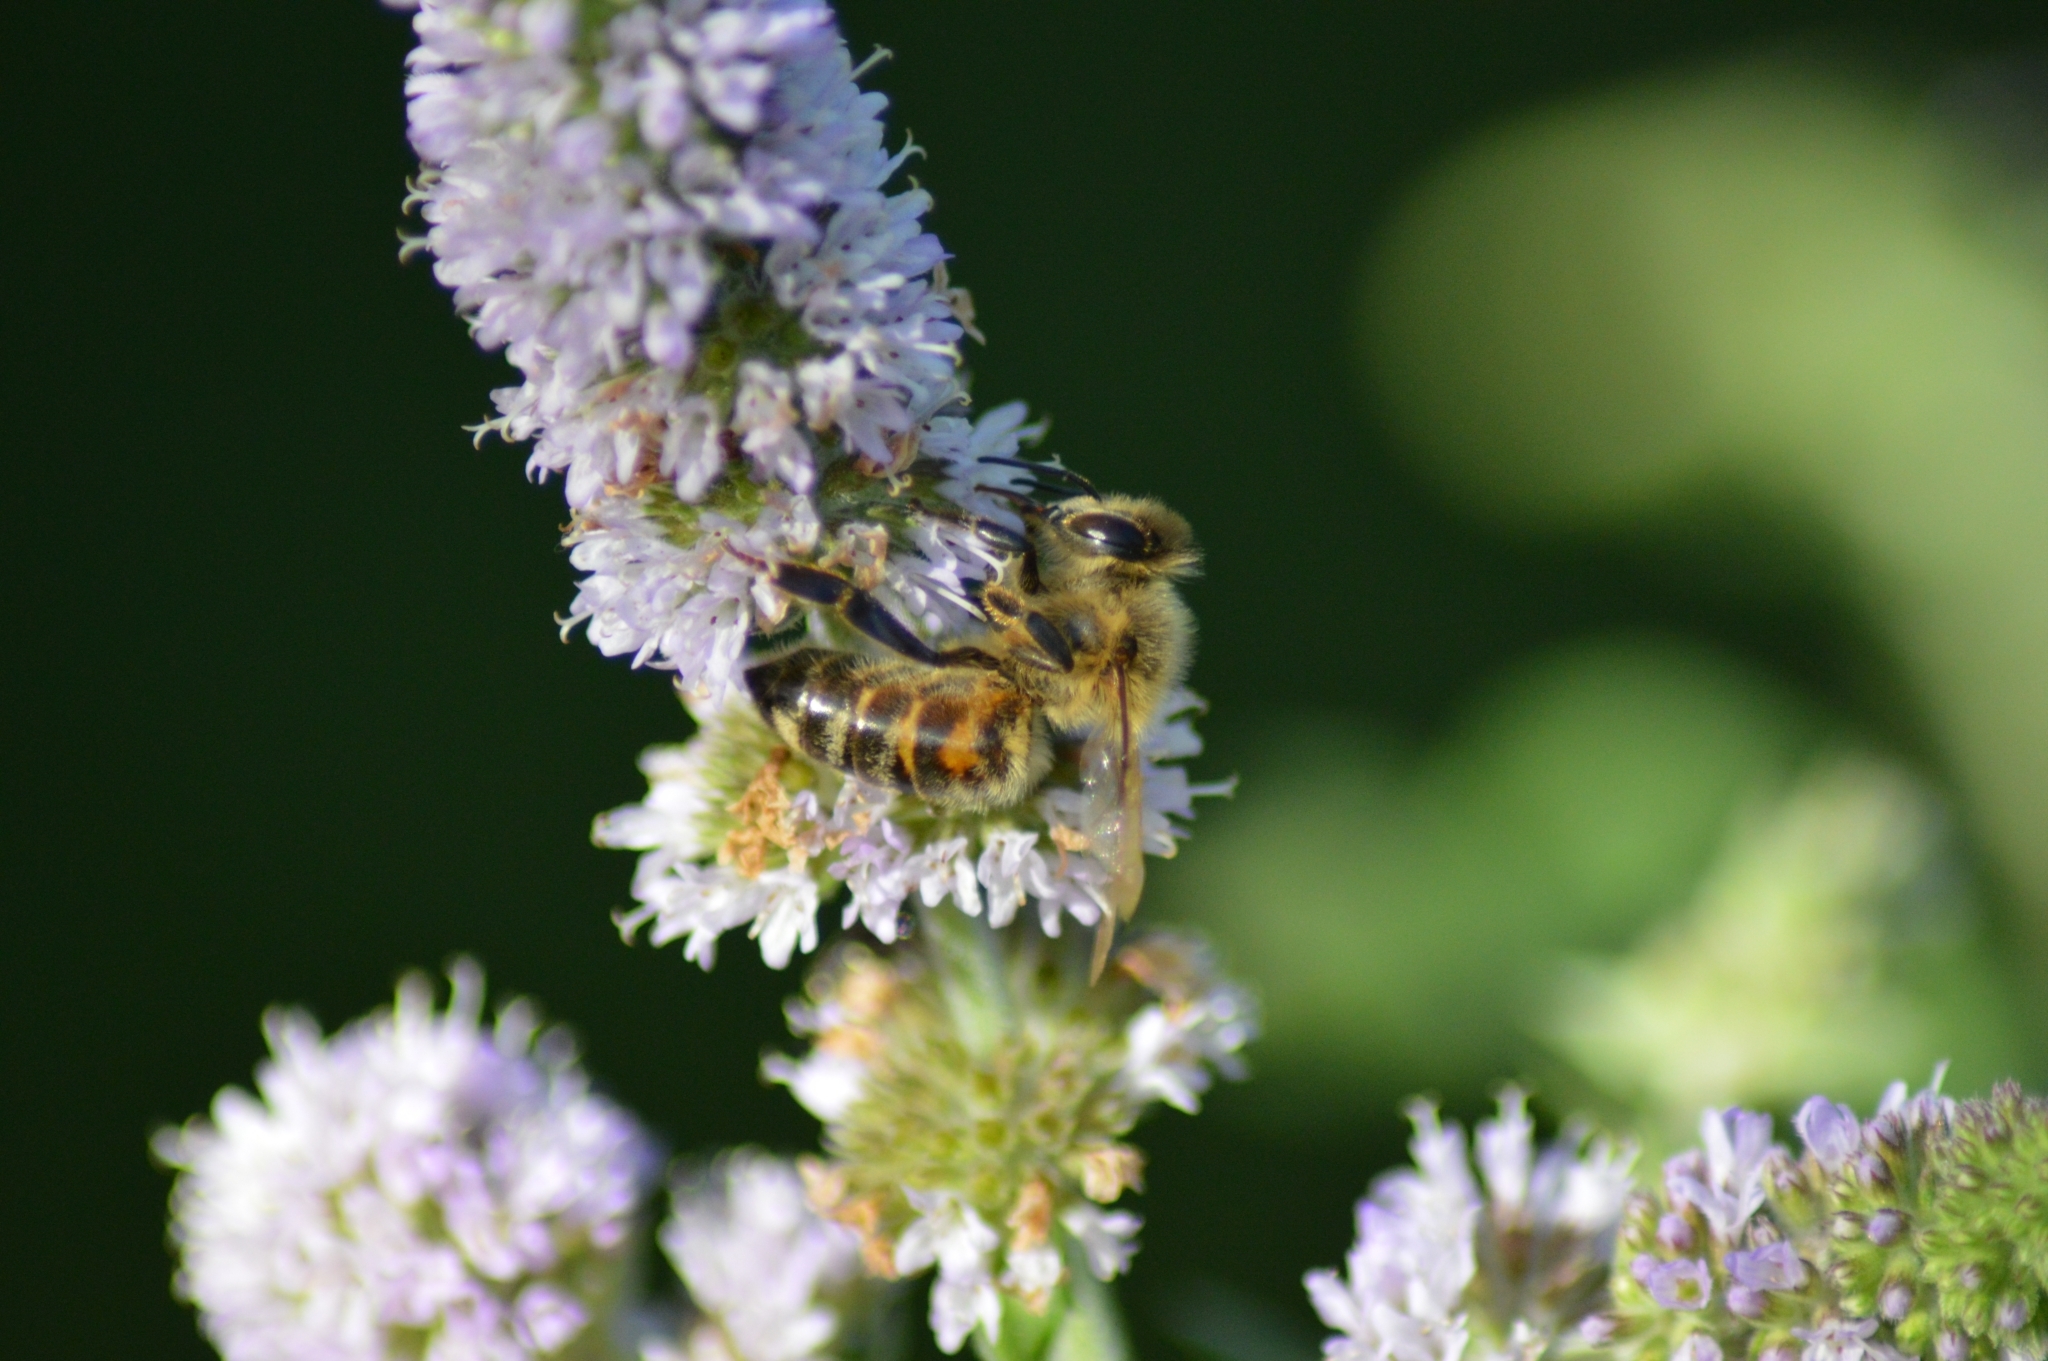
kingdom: Animalia
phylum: Arthropoda
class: Insecta
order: Hymenoptera
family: Apidae
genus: Apis
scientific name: Apis mellifera
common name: Honey bee
